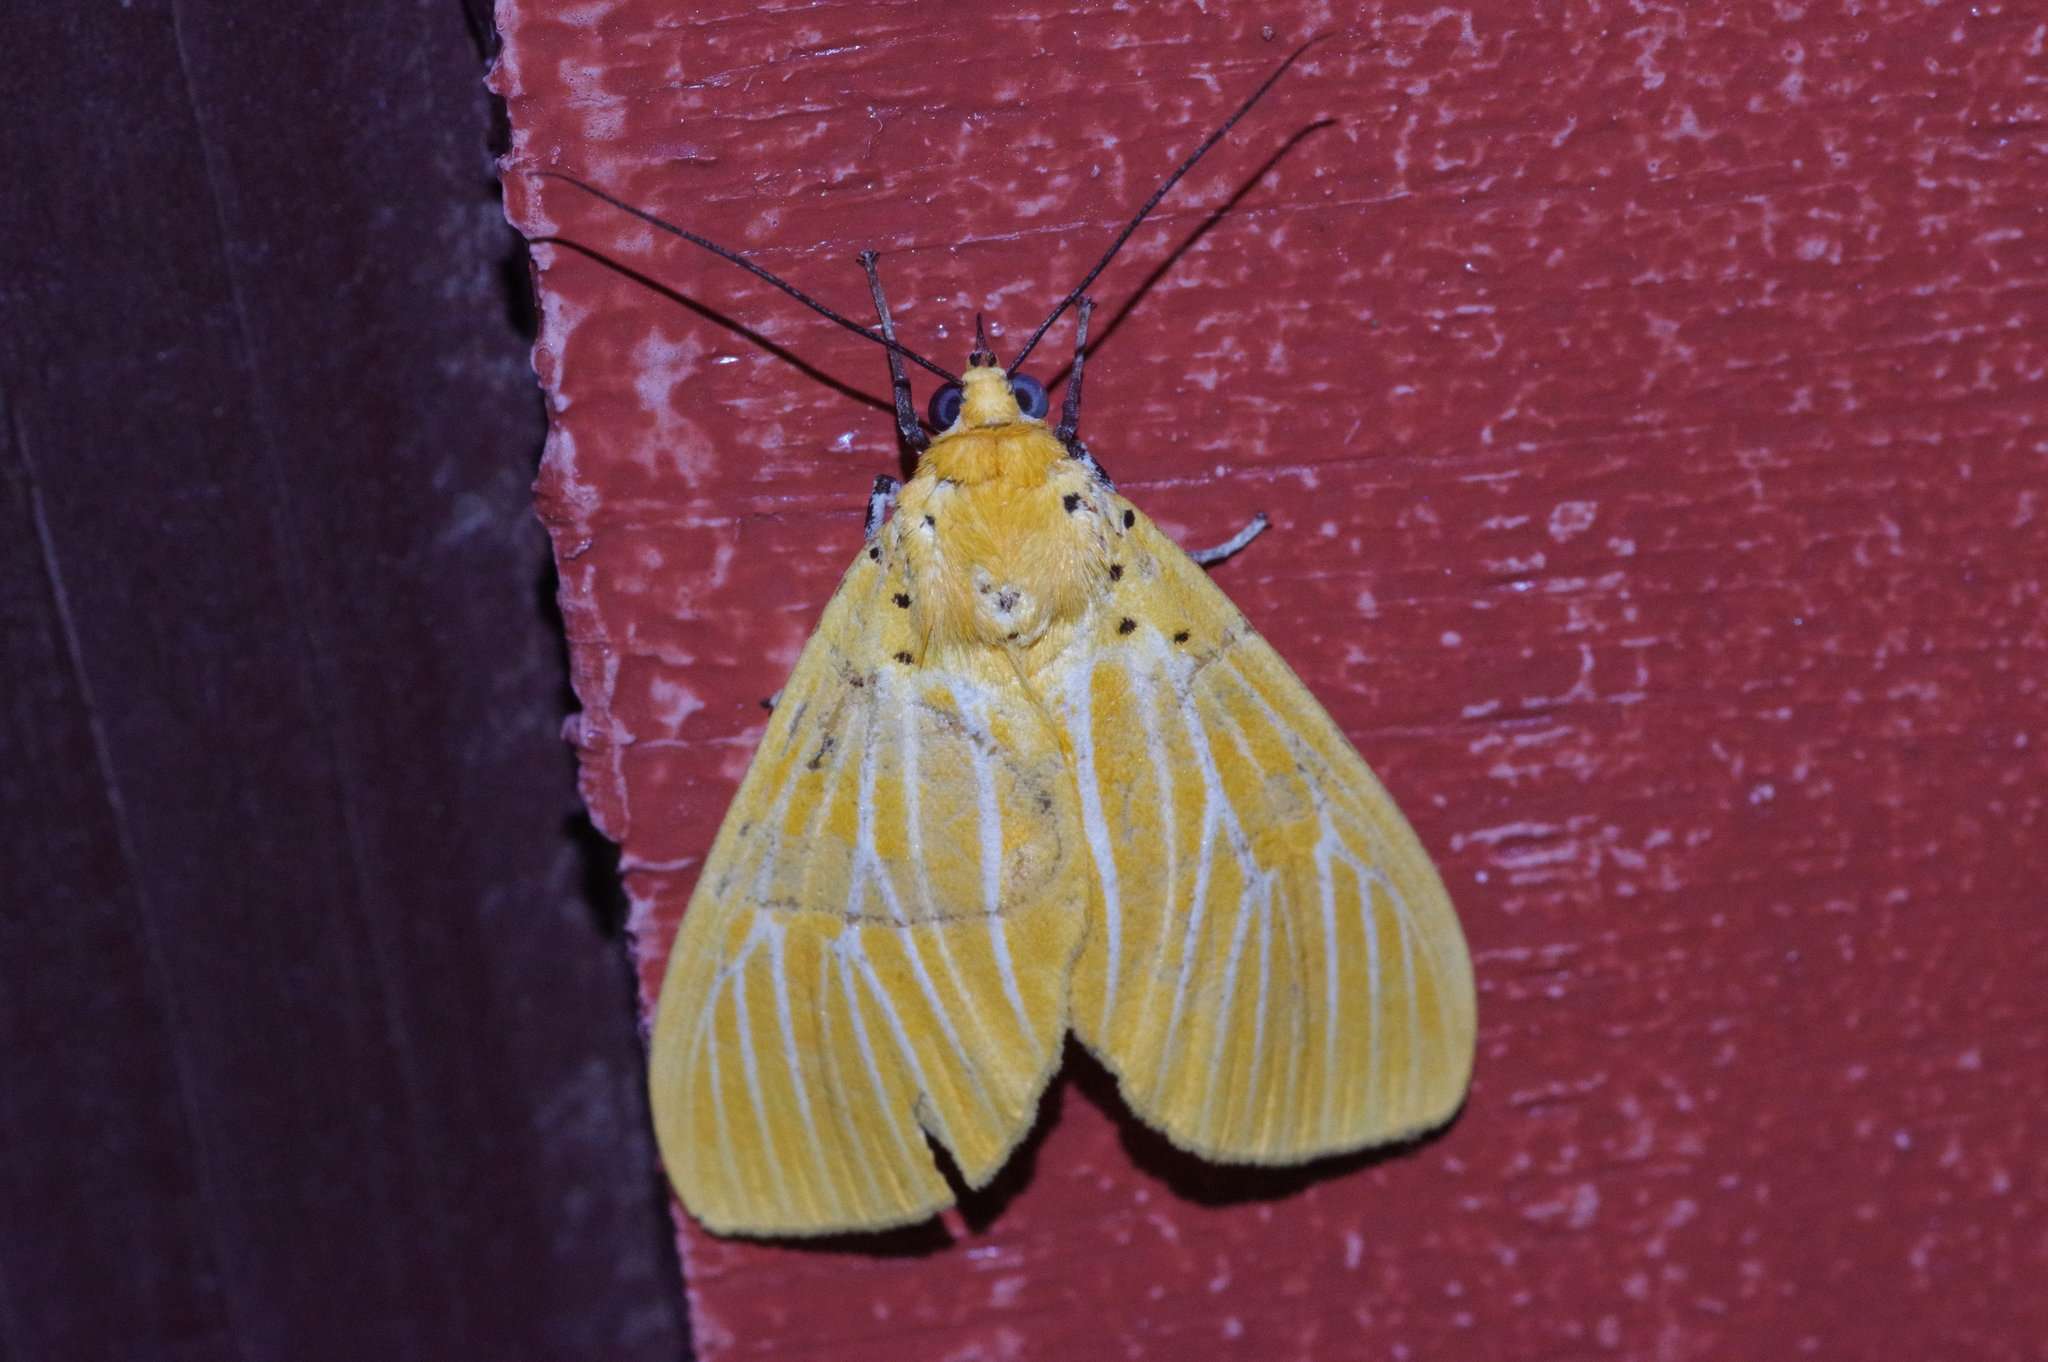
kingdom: Animalia
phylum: Arthropoda
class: Insecta
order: Lepidoptera
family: Erebidae
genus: Asota
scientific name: Asota egens
